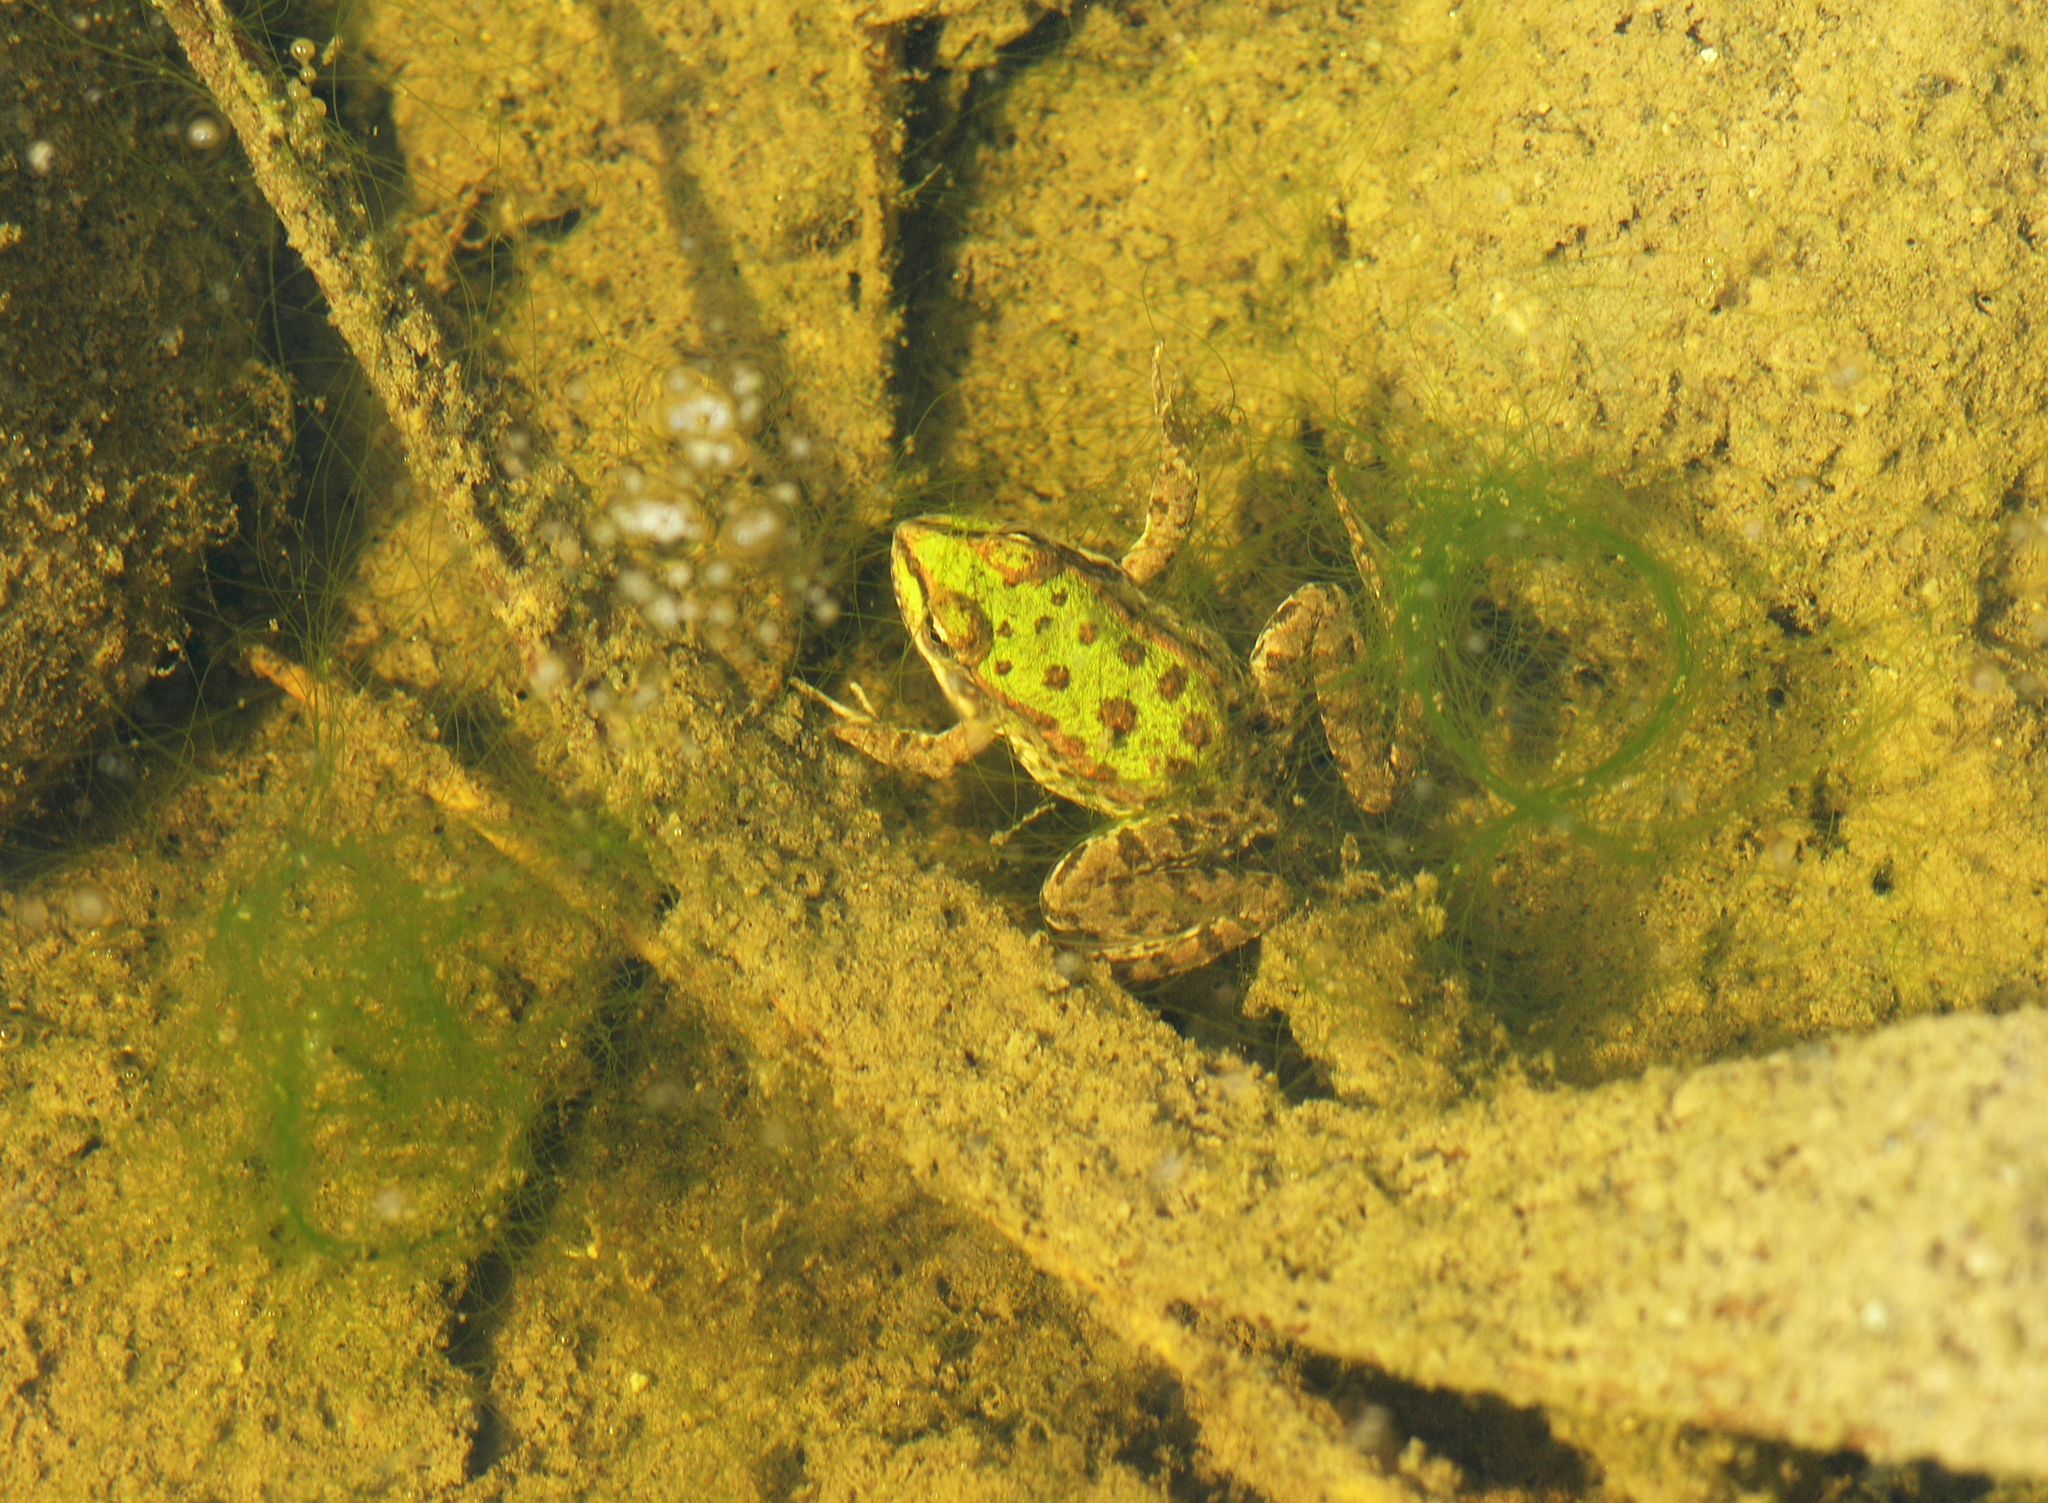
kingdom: Animalia
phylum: Chordata
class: Amphibia
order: Anura
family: Ranidae
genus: Pelophylax
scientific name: Pelophylax ridibundus
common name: Marsh frog
